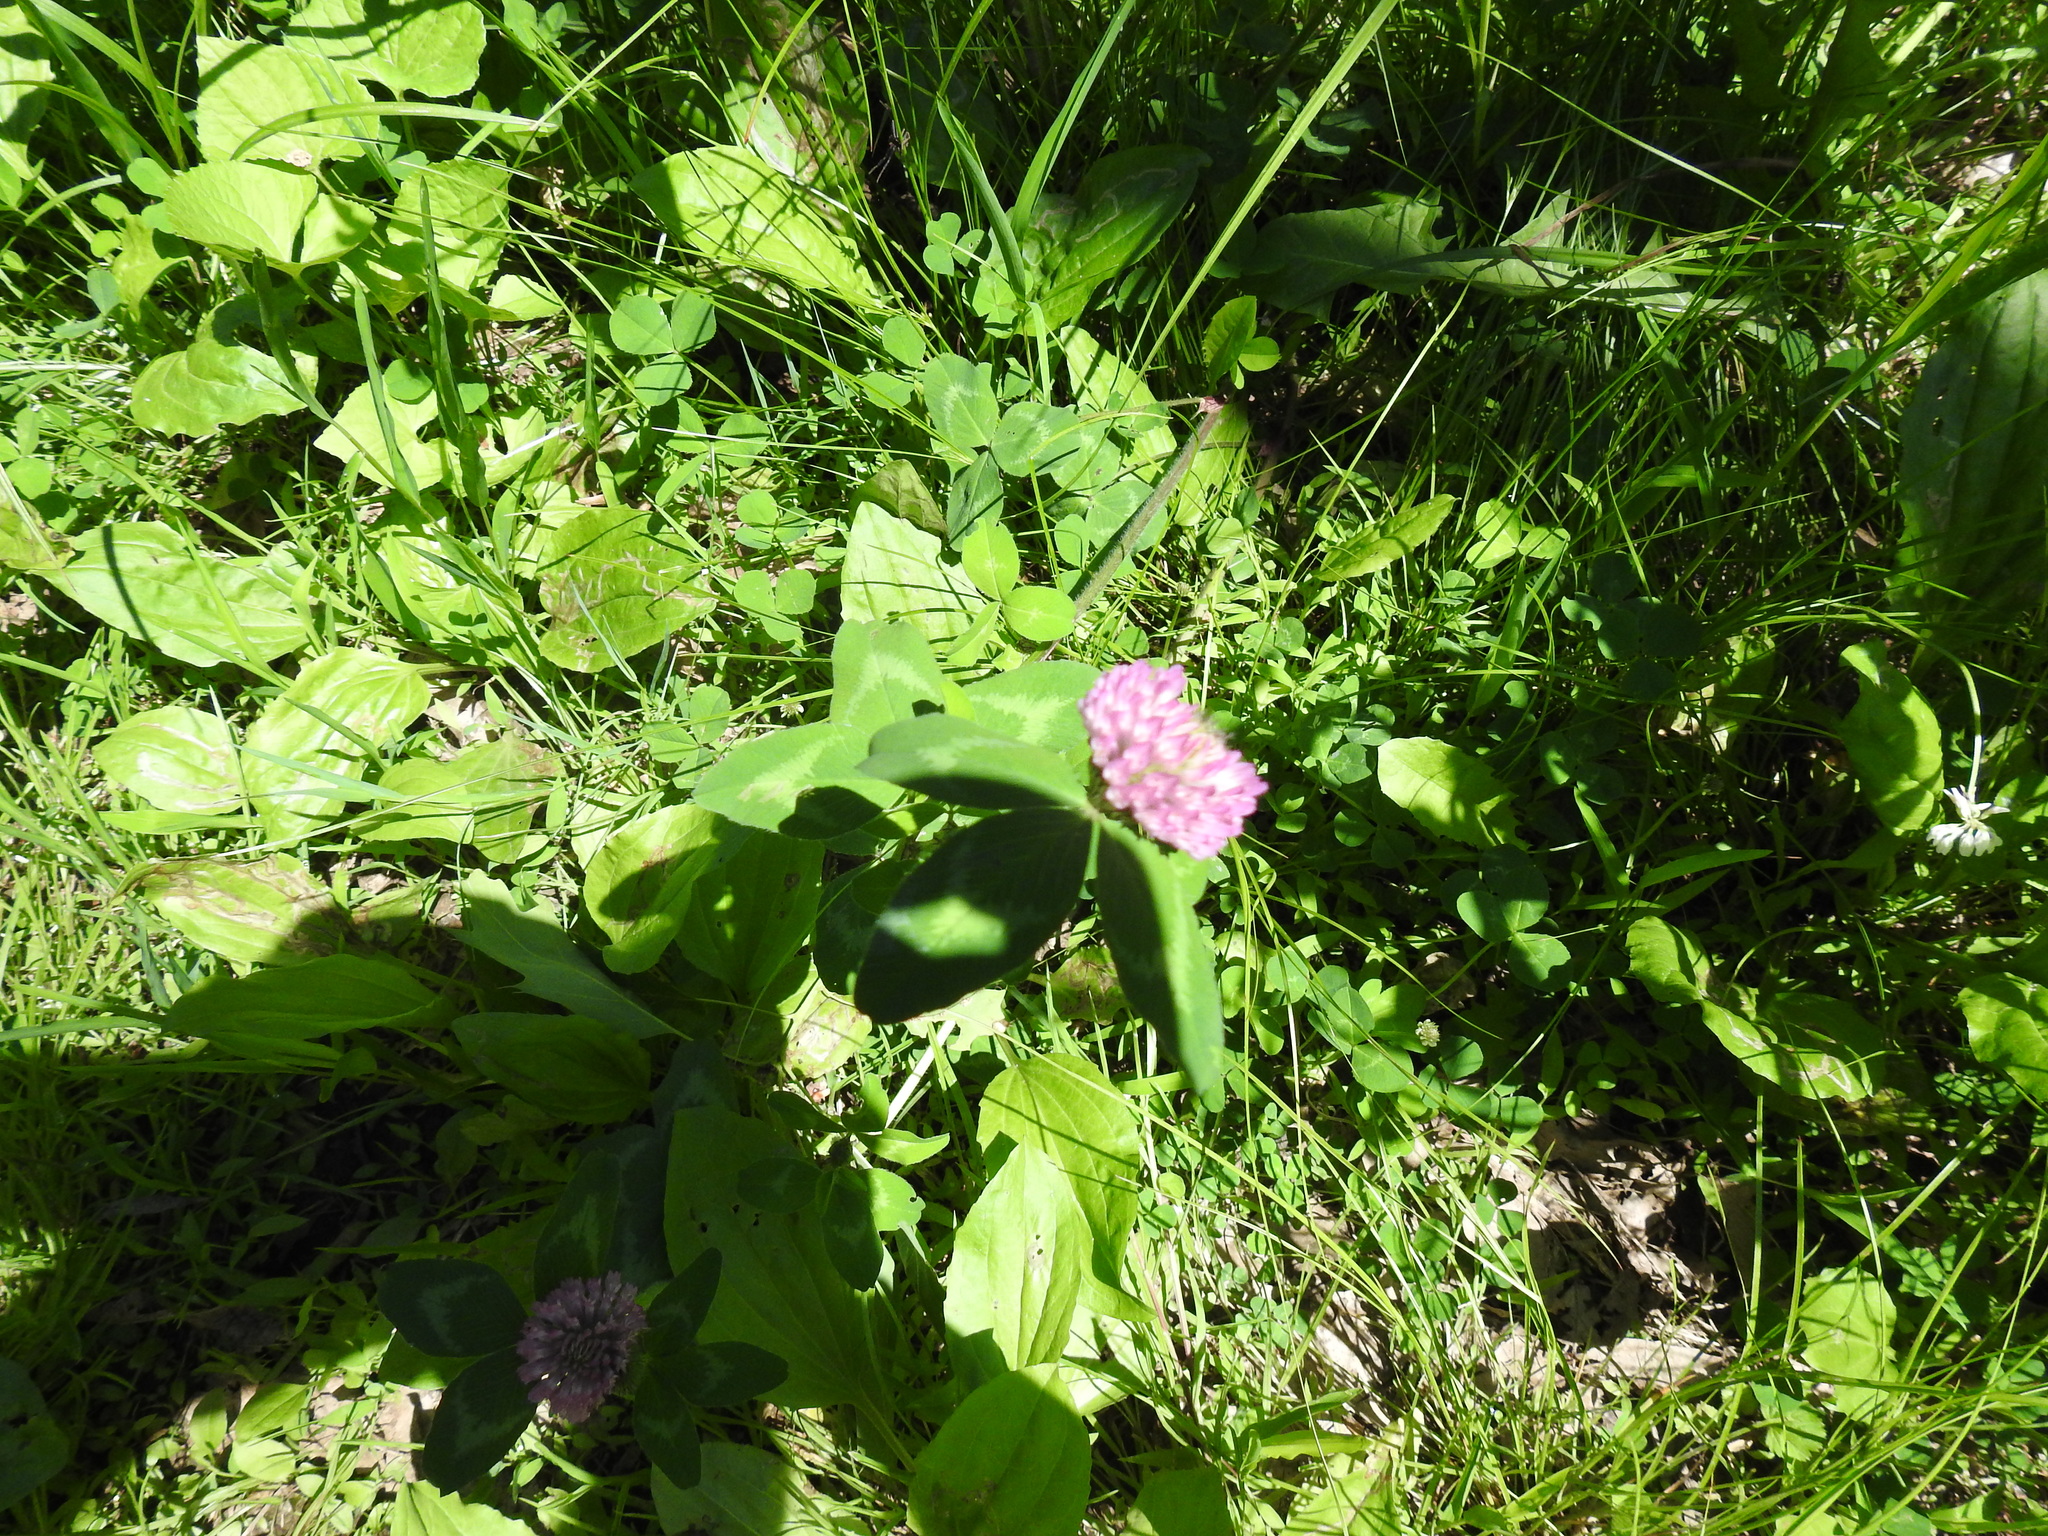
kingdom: Plantae
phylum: Tracheophyta
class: Magnoliopsida
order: Fabales
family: Fabaceae
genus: Trifolium
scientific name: Trifolium pratense
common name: Red clover
